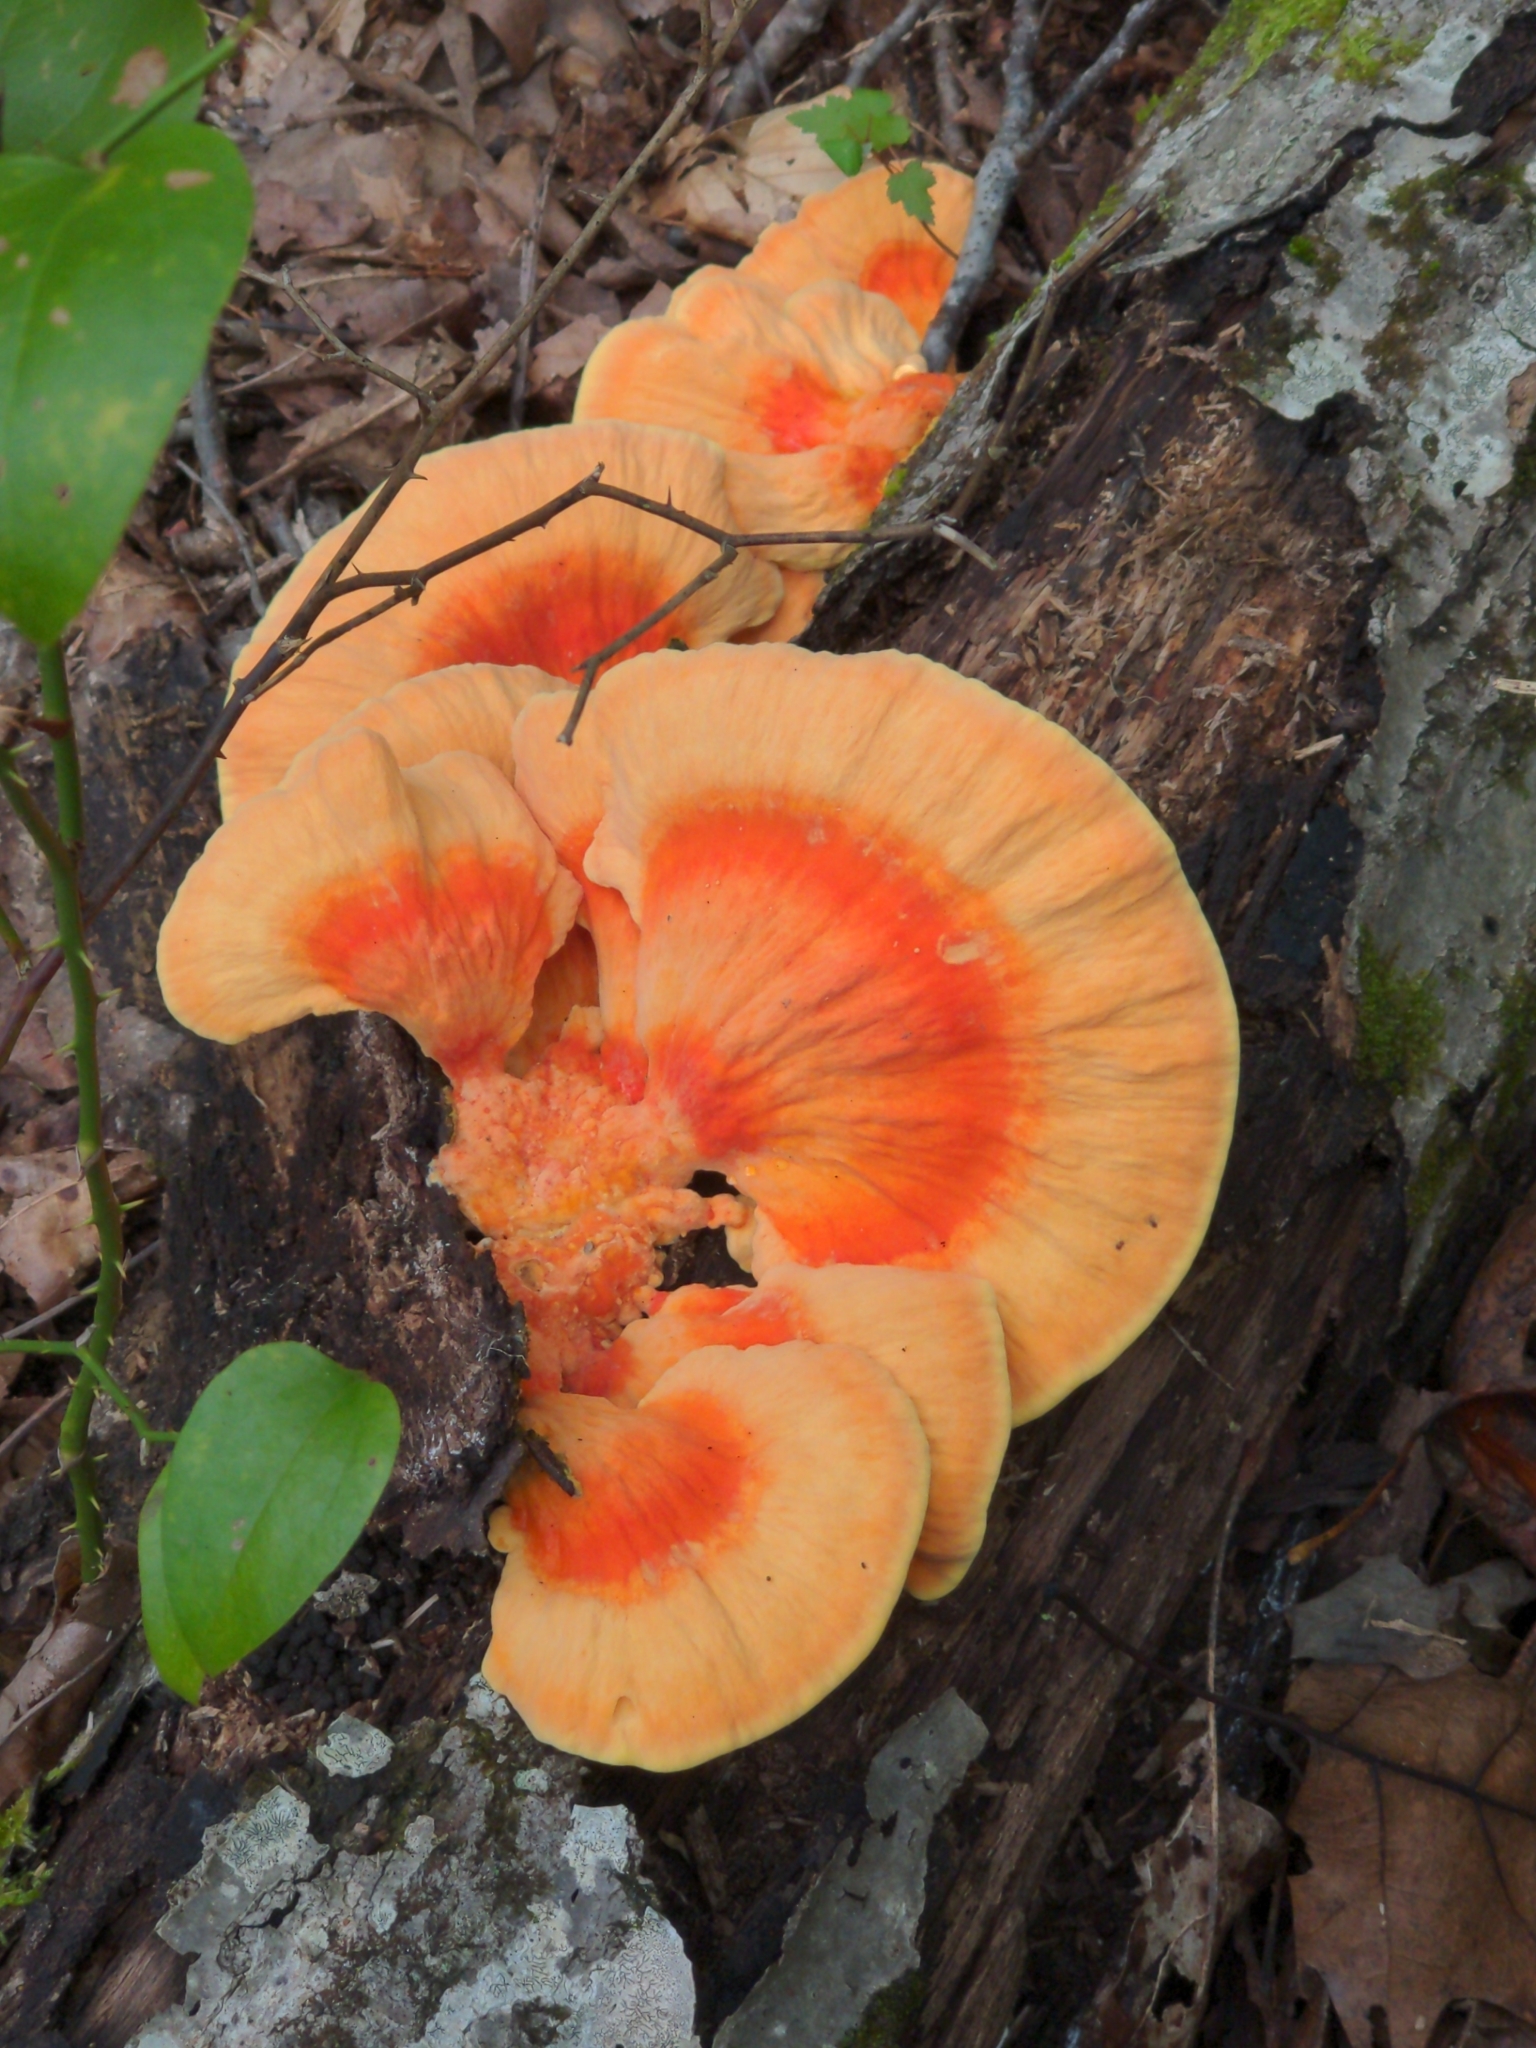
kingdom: Fungi
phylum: Basidiomycota
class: Agaricomycetes
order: Polyporales
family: Laetiporaceae
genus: Laetiporus
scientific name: Laetiporus sulphureus
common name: Chicken of the woods
